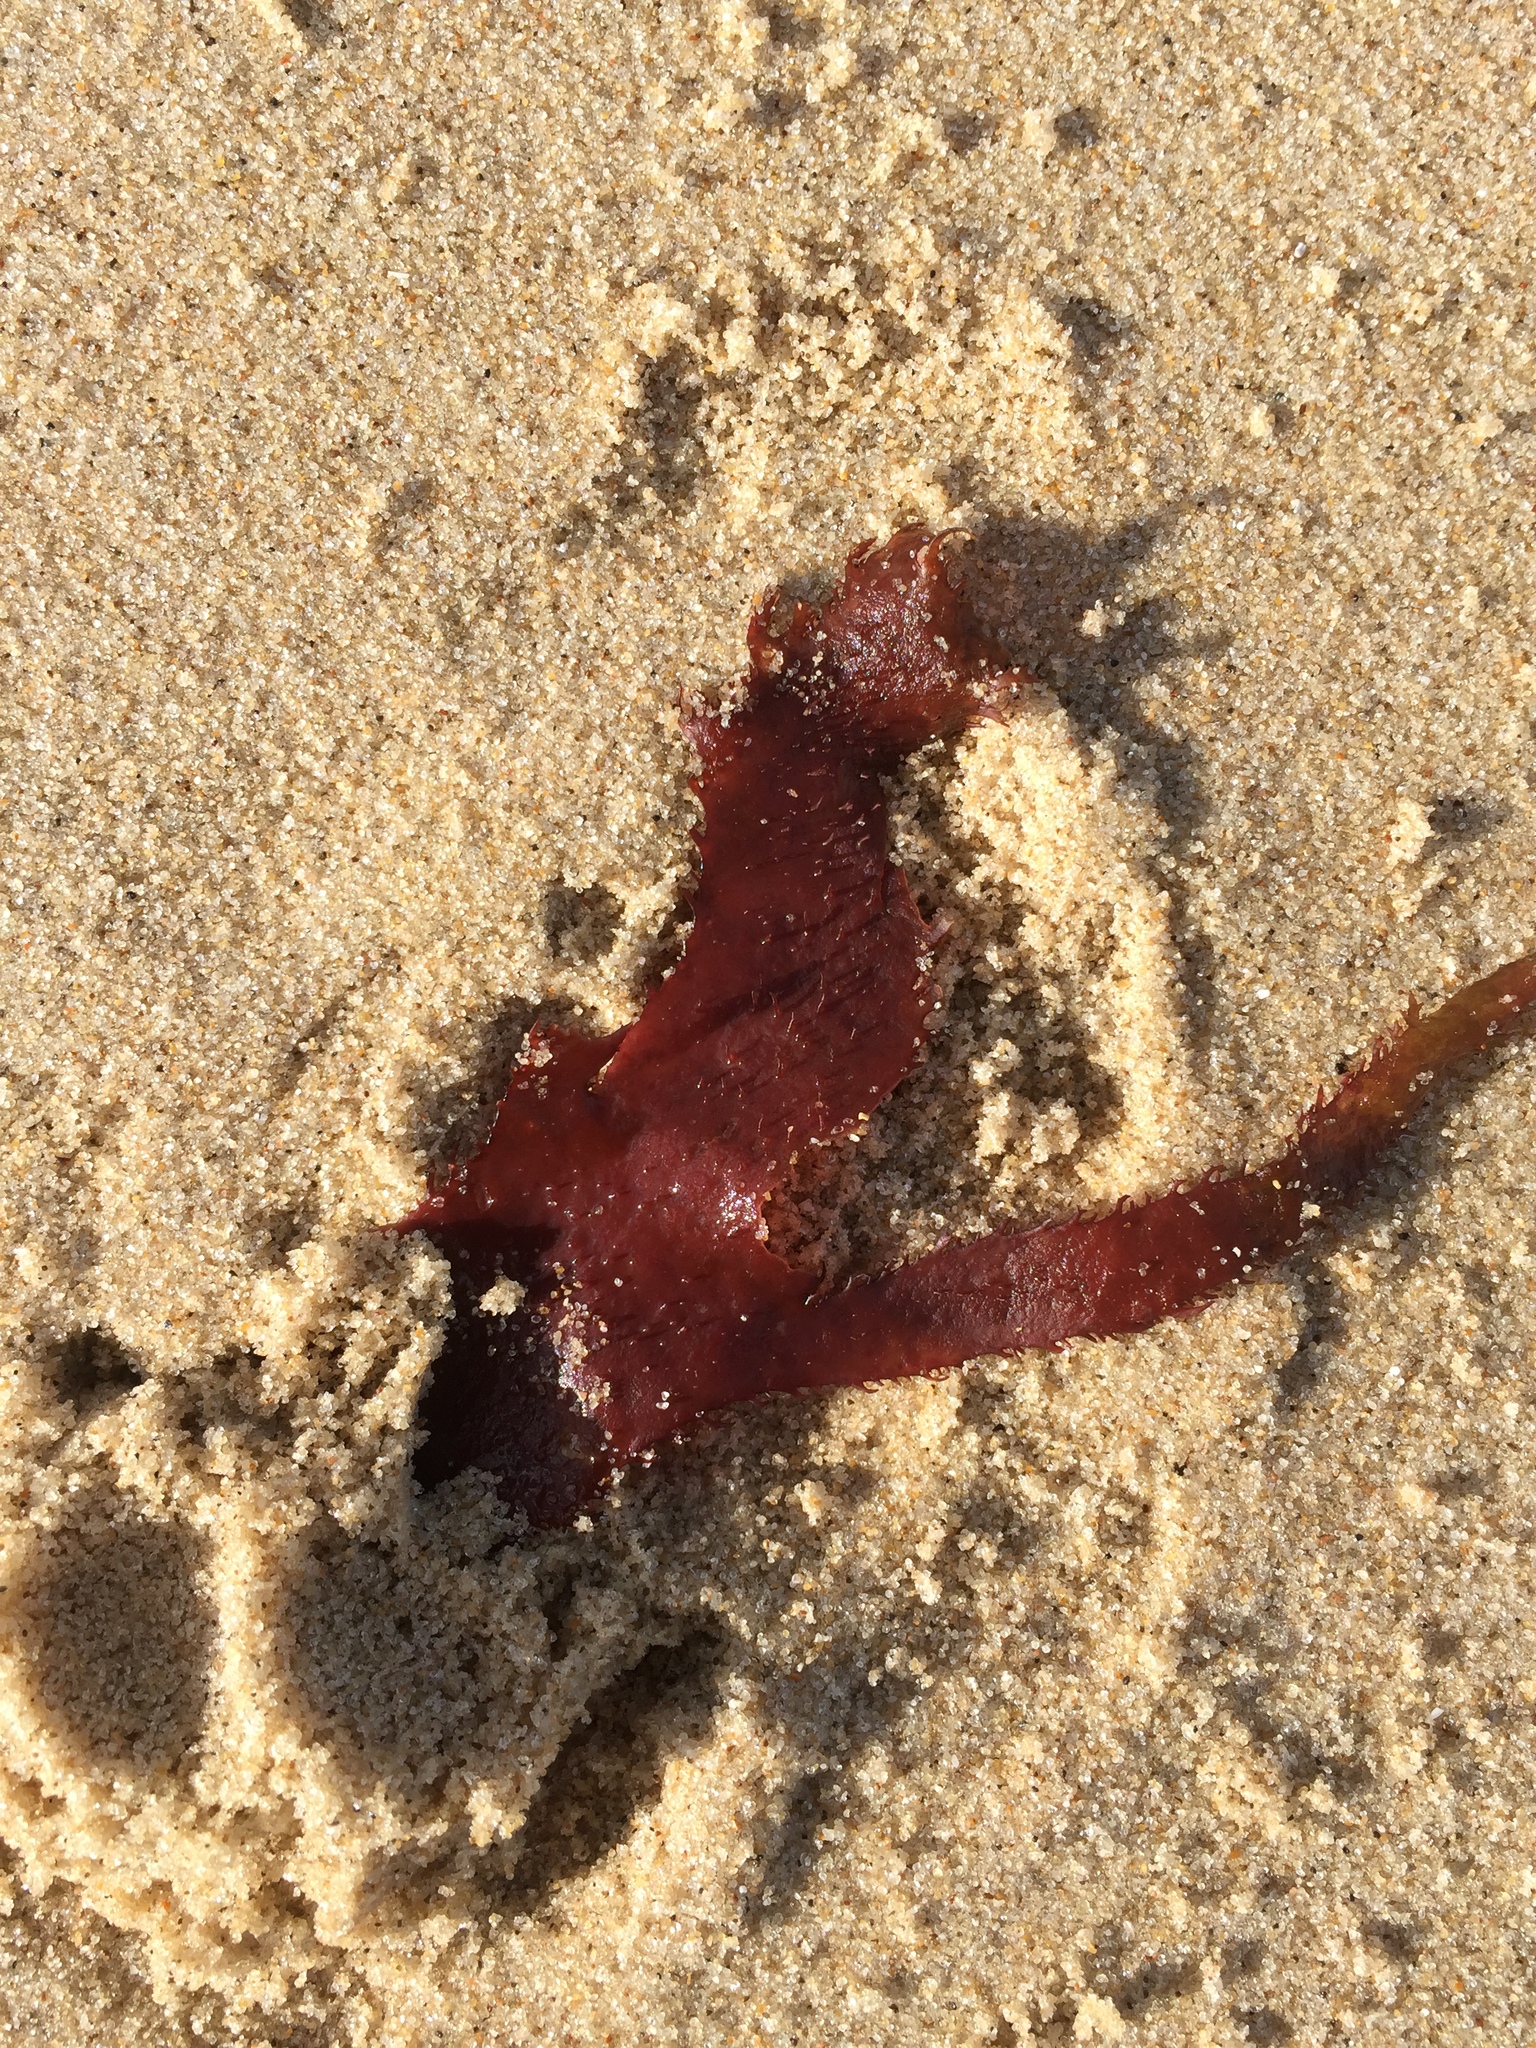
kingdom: Plantae
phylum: Rhodophyta
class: Florideophyceae
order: Gigartinales
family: Cystocloniaceae
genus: Calliblepharis
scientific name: Calliblepharis ciliata
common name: Eyelash weed
